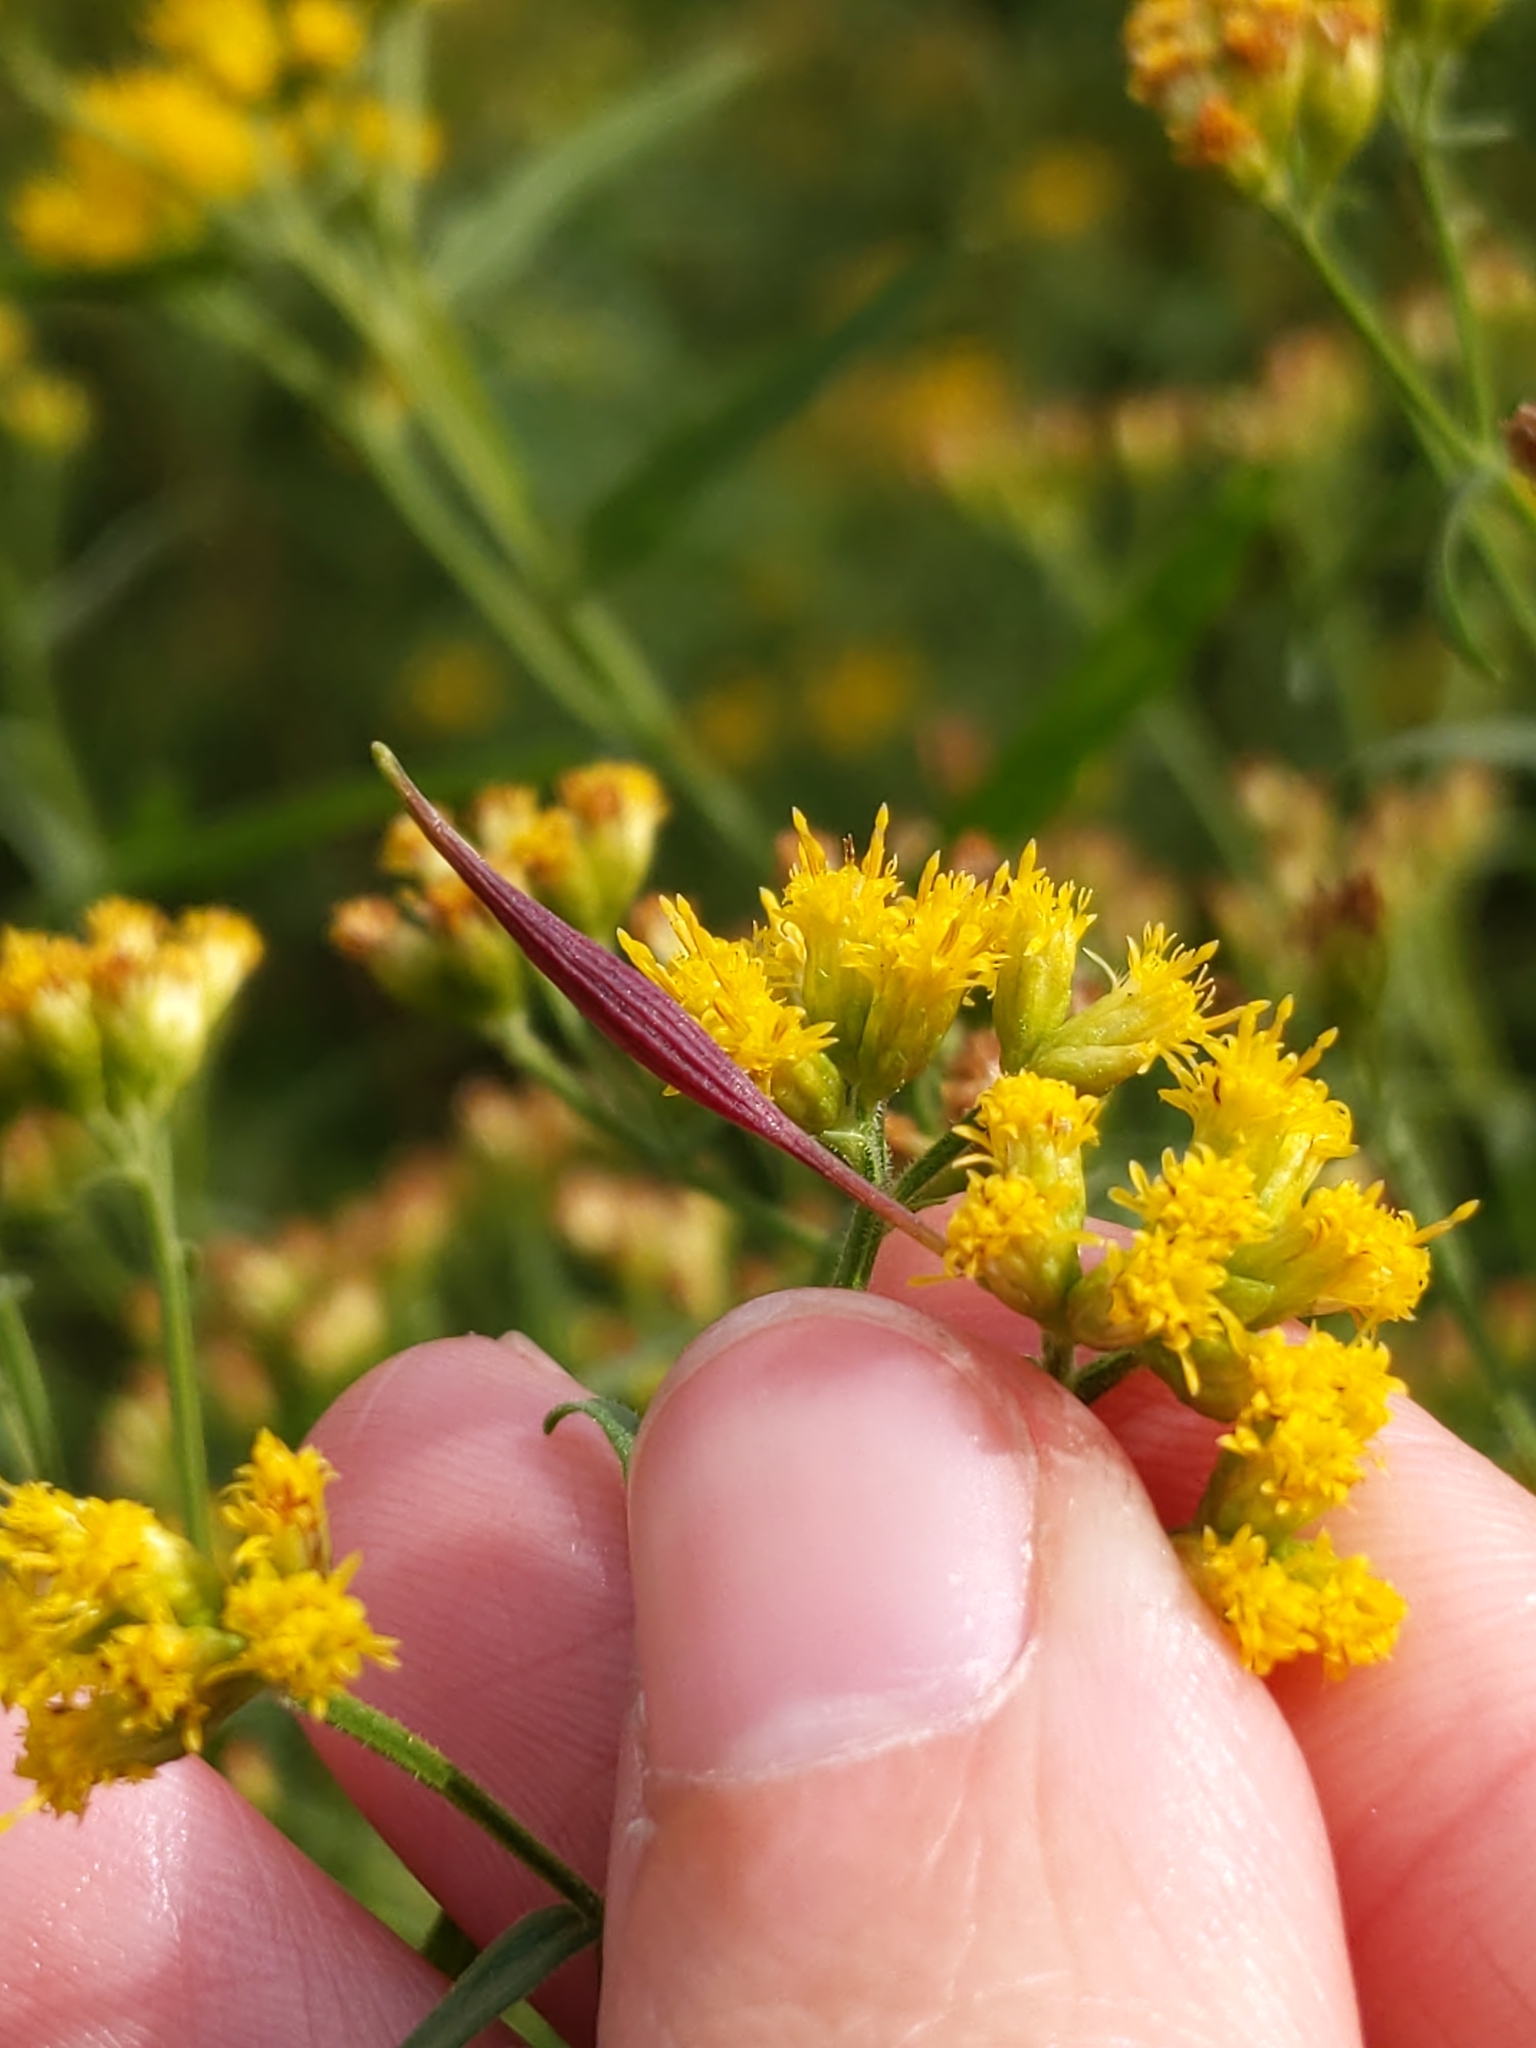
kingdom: Animalia
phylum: Arthropoda
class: Insecta
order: Diptera
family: Cecidomyiidae
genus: Rhopalomyia
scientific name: Rhopalomyia pedicellata
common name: Goldentop pedicellate gall midge
